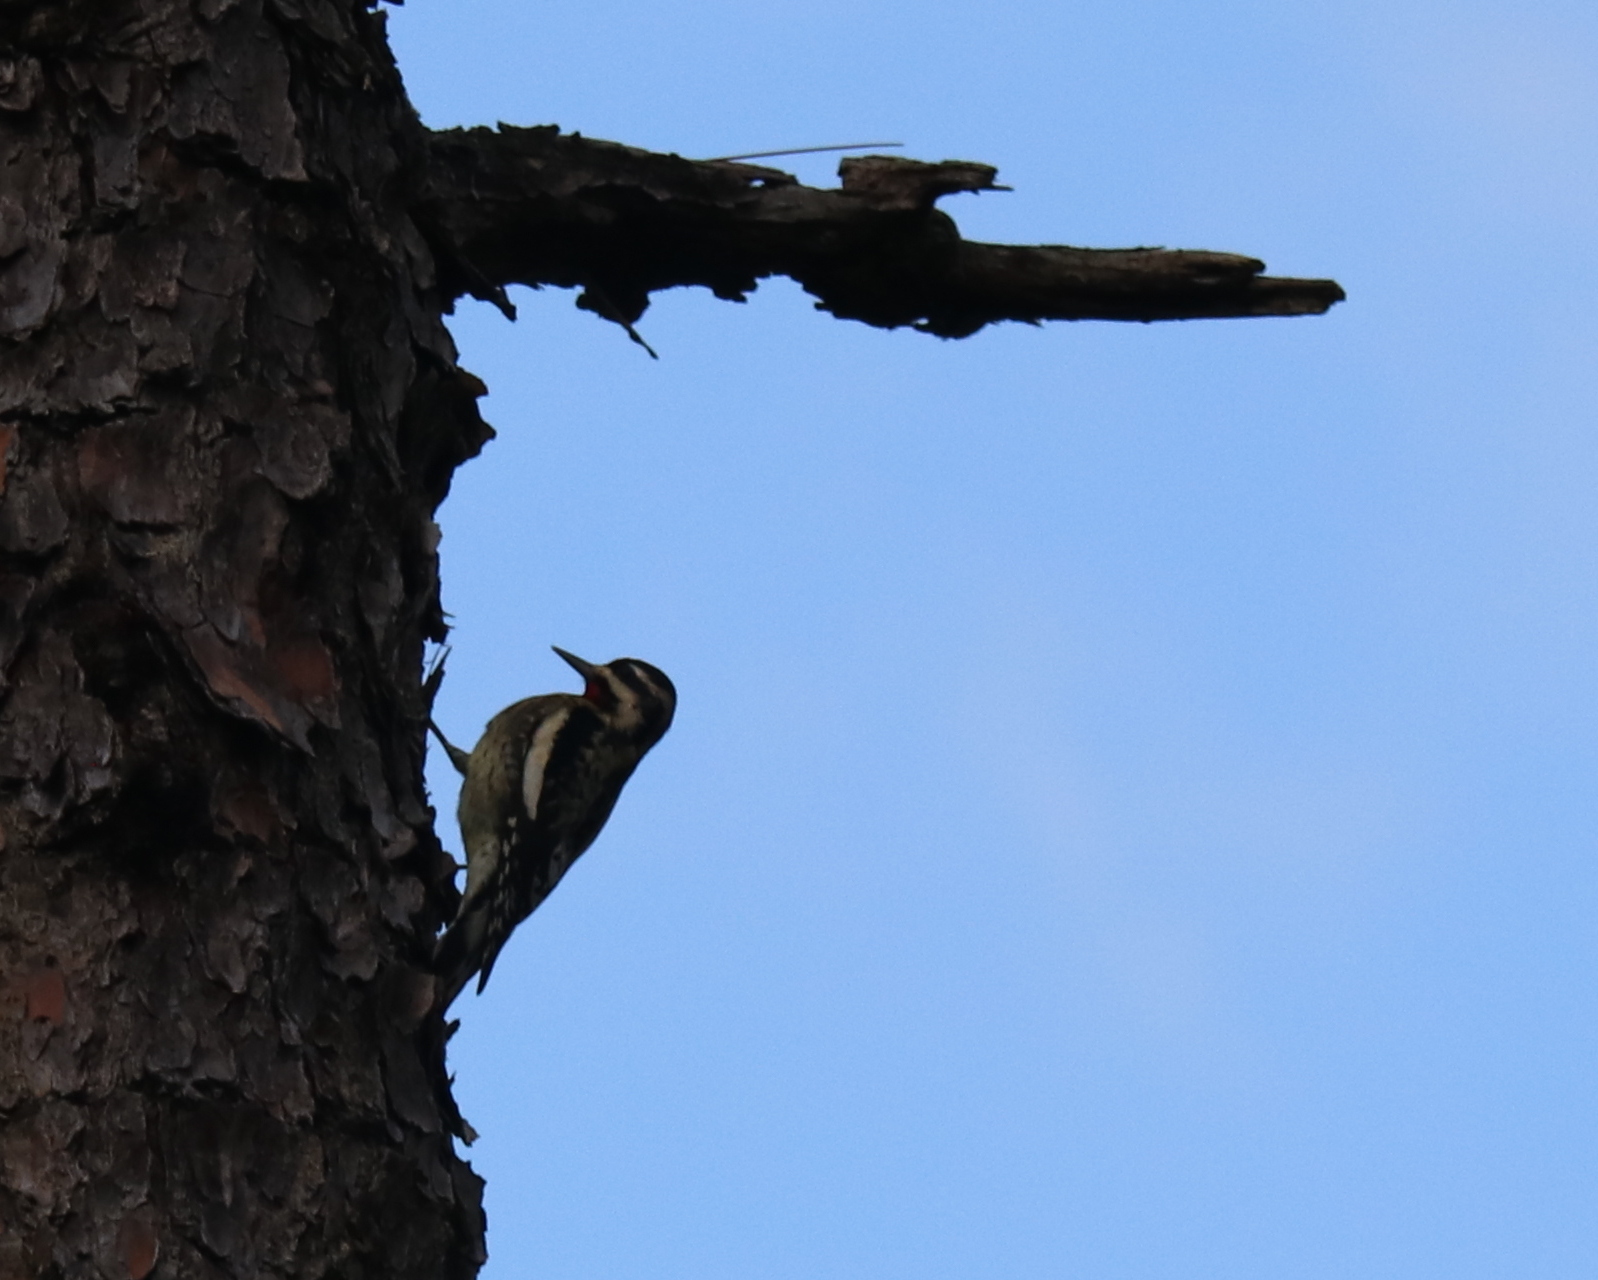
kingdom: Animalia
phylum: Chordata
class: Aves
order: Piciformes
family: Picidae
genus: Sphyrapicus
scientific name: Sphyrapicus varius
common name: Yellow-bellied sapsucker
